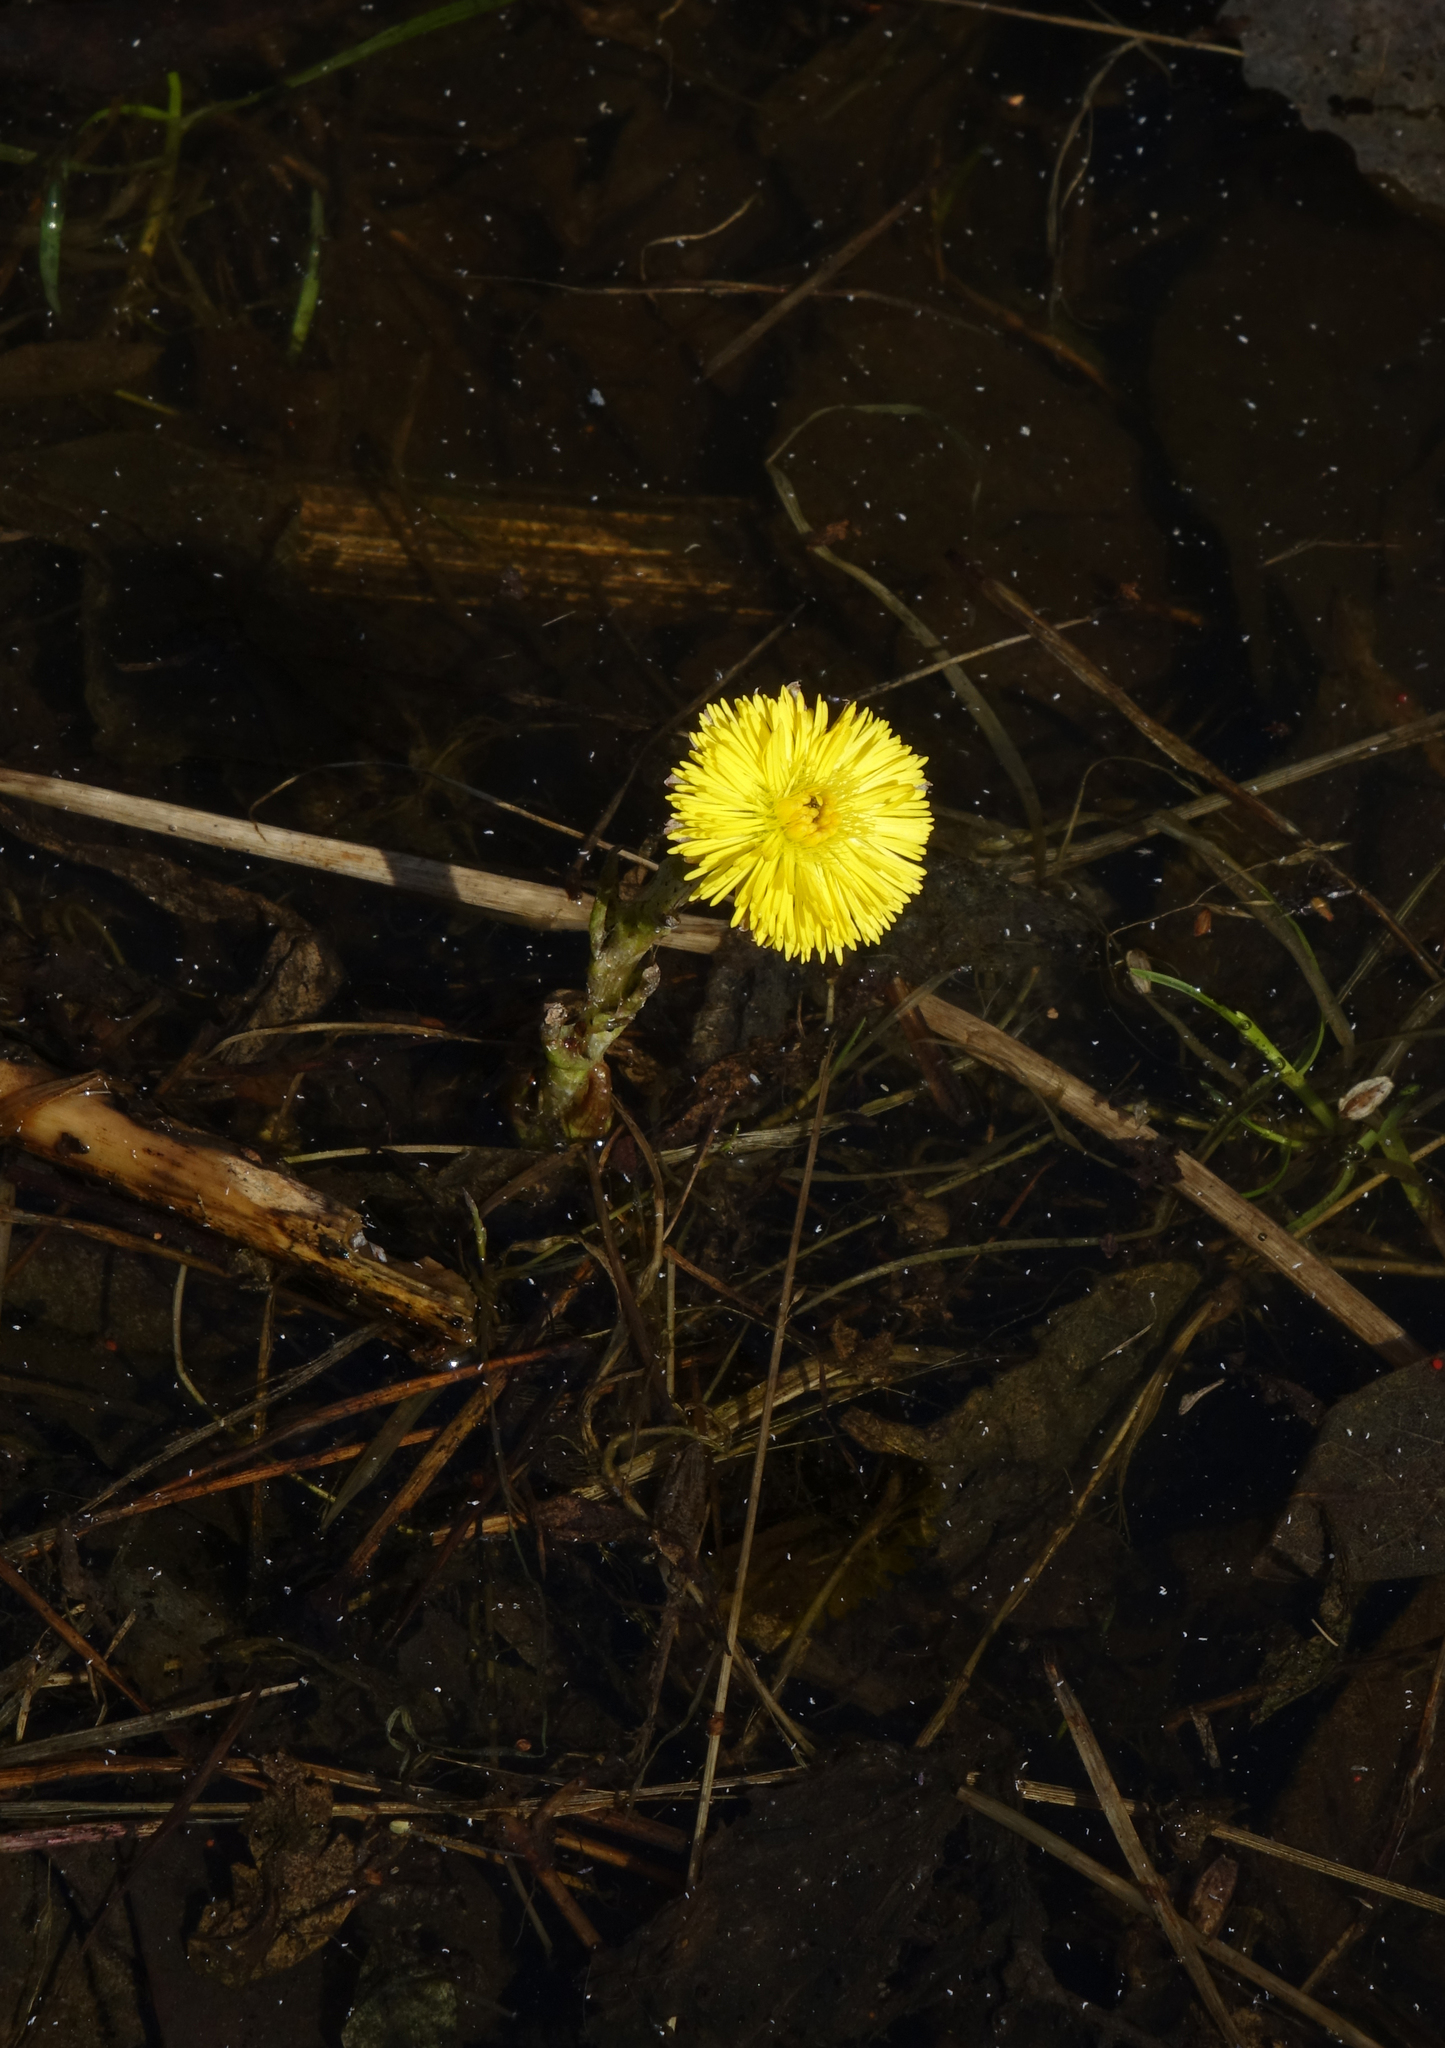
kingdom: Plantae
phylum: Tracheophyta
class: Magnoliopsida
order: Asterales
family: Asteraceae
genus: Tussilago
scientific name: Tussilago farfara
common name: Coltsfoot
